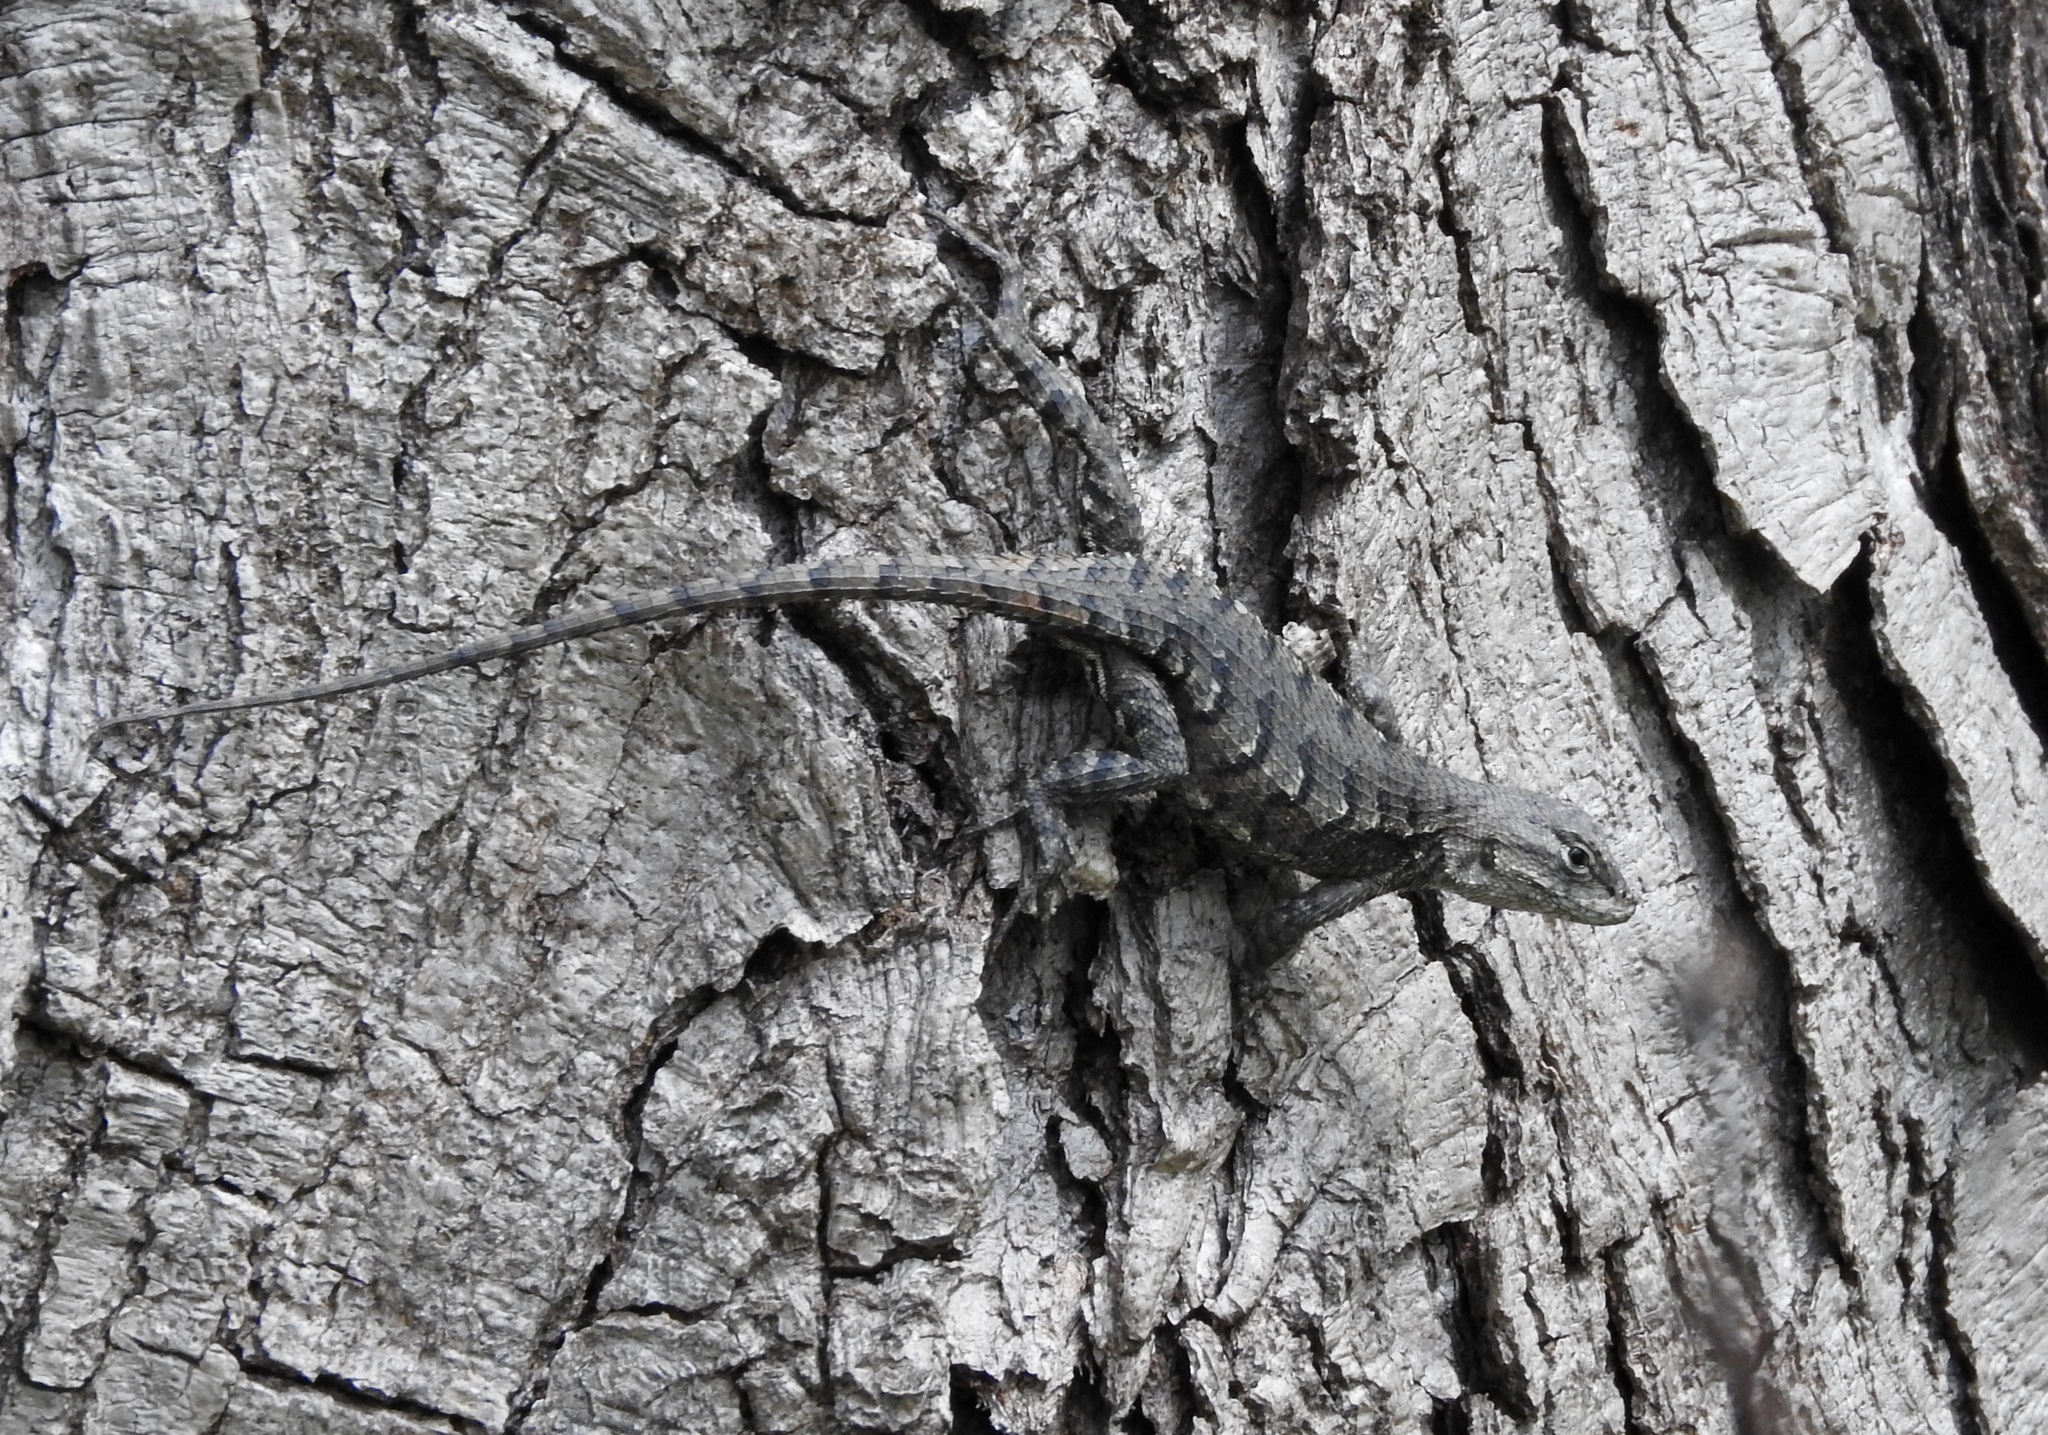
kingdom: Animalia
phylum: Chordata
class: Squamata
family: Phrynosomatidae
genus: Sceloporus
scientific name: Sceloporus consobrinus
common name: Southern prairie lizard
